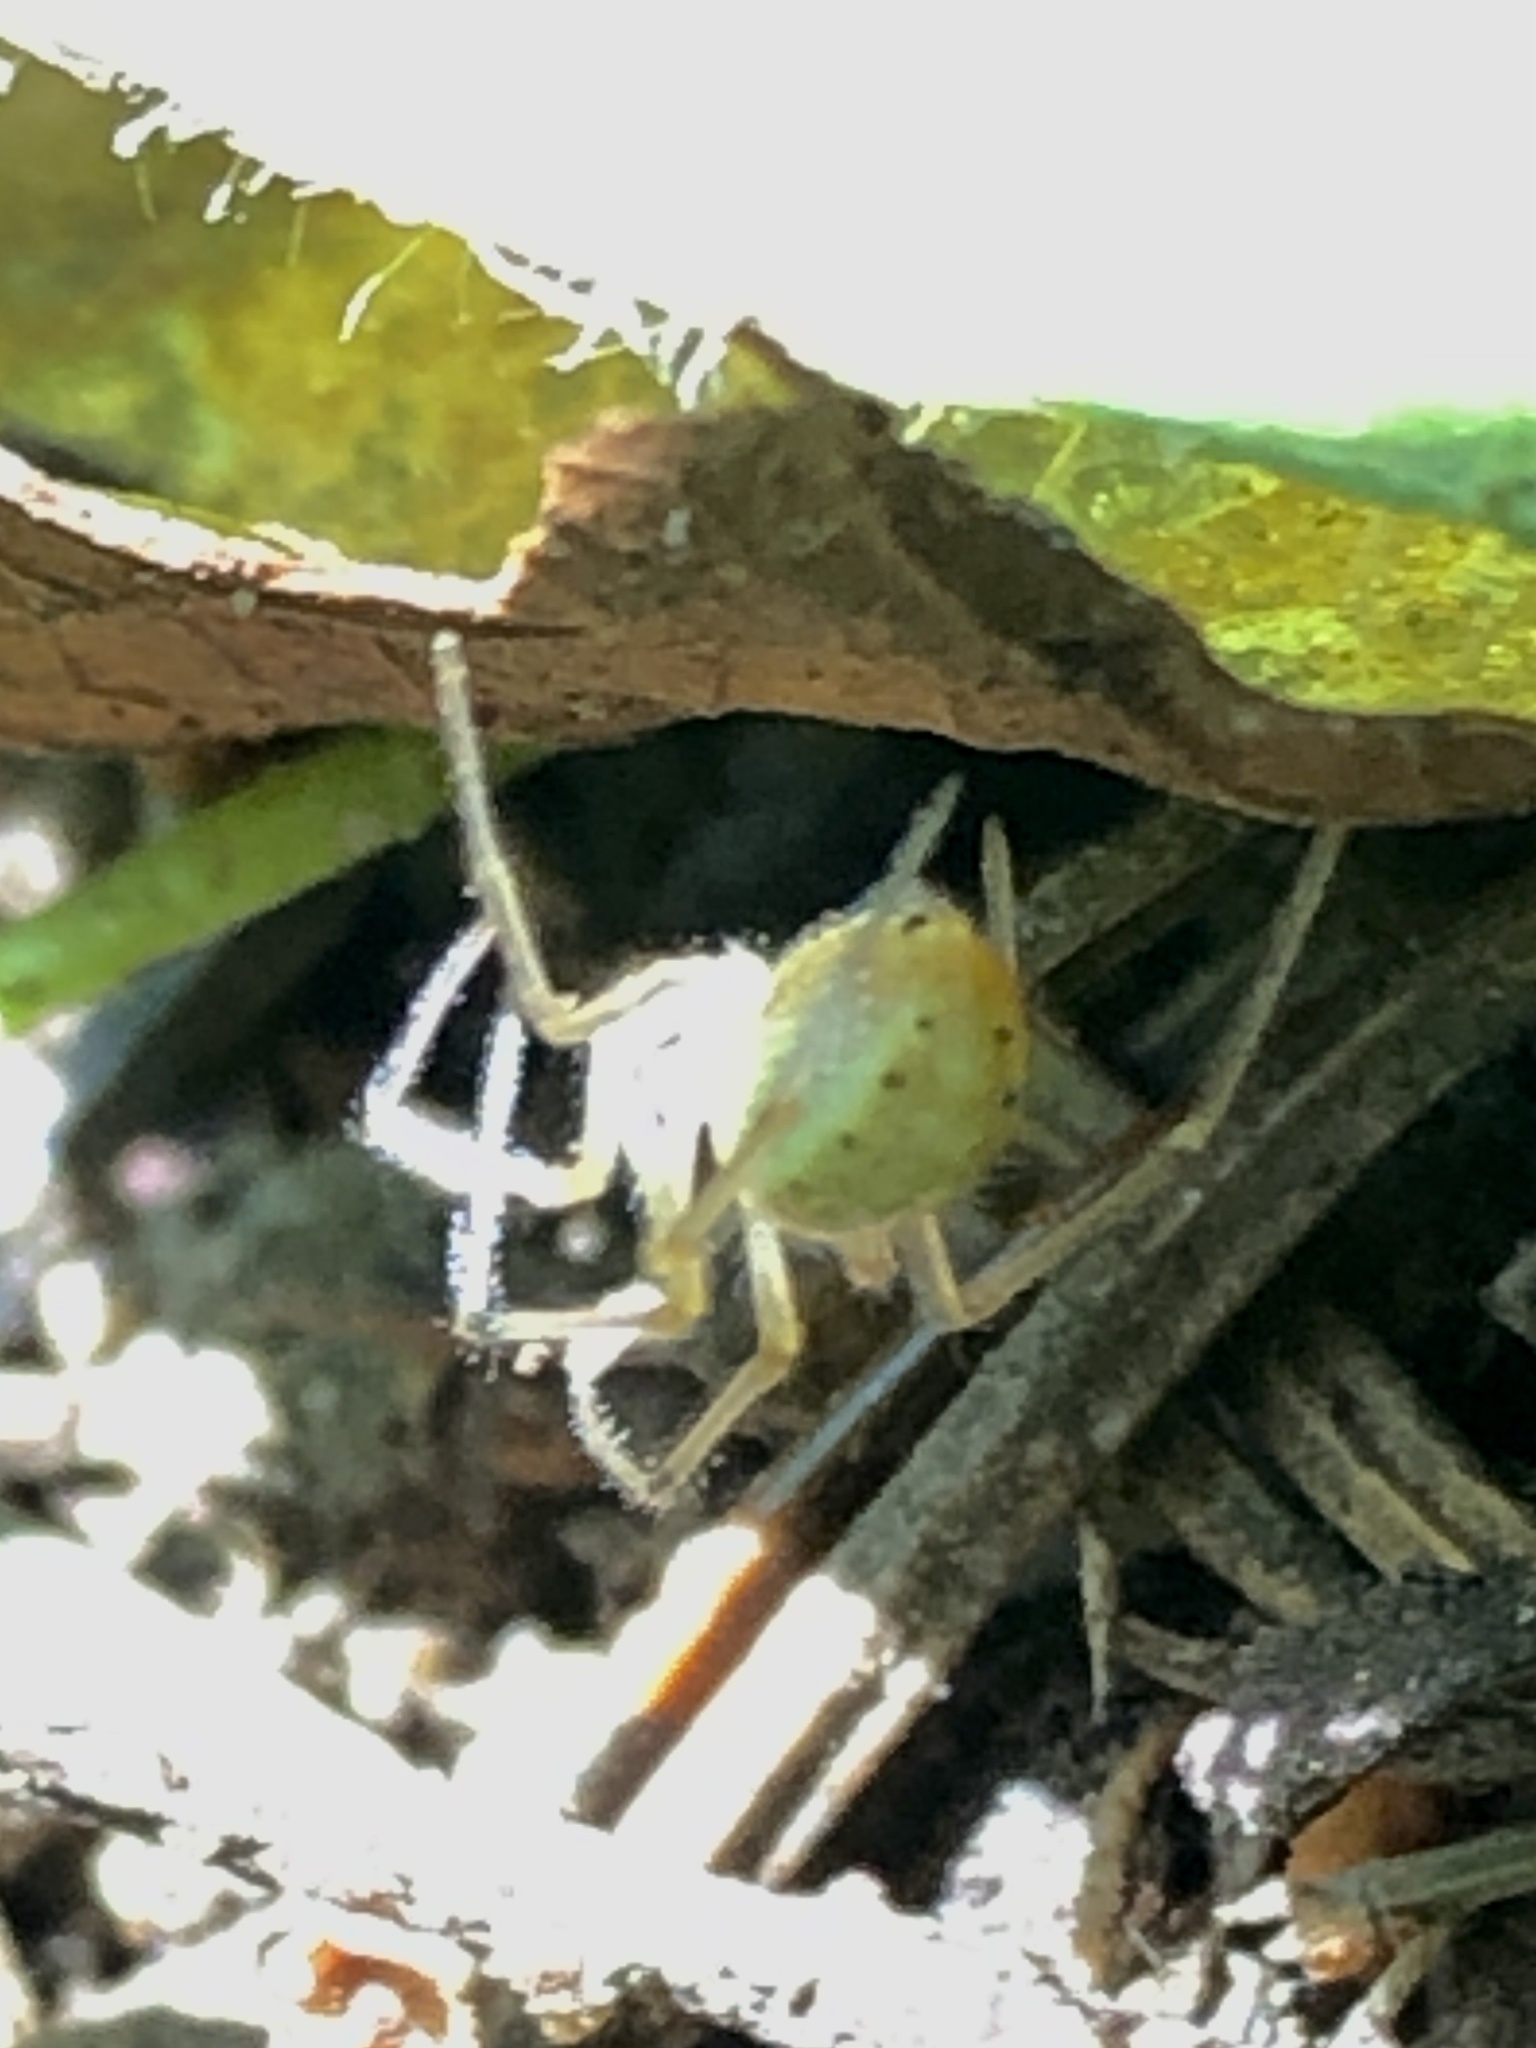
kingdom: Animalia
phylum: Arthropoda
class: Arachnida
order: Araneae
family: Theridiidae
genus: Enoplognatha
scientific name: Enoplognatha ovata
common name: Common candy-striped spider
